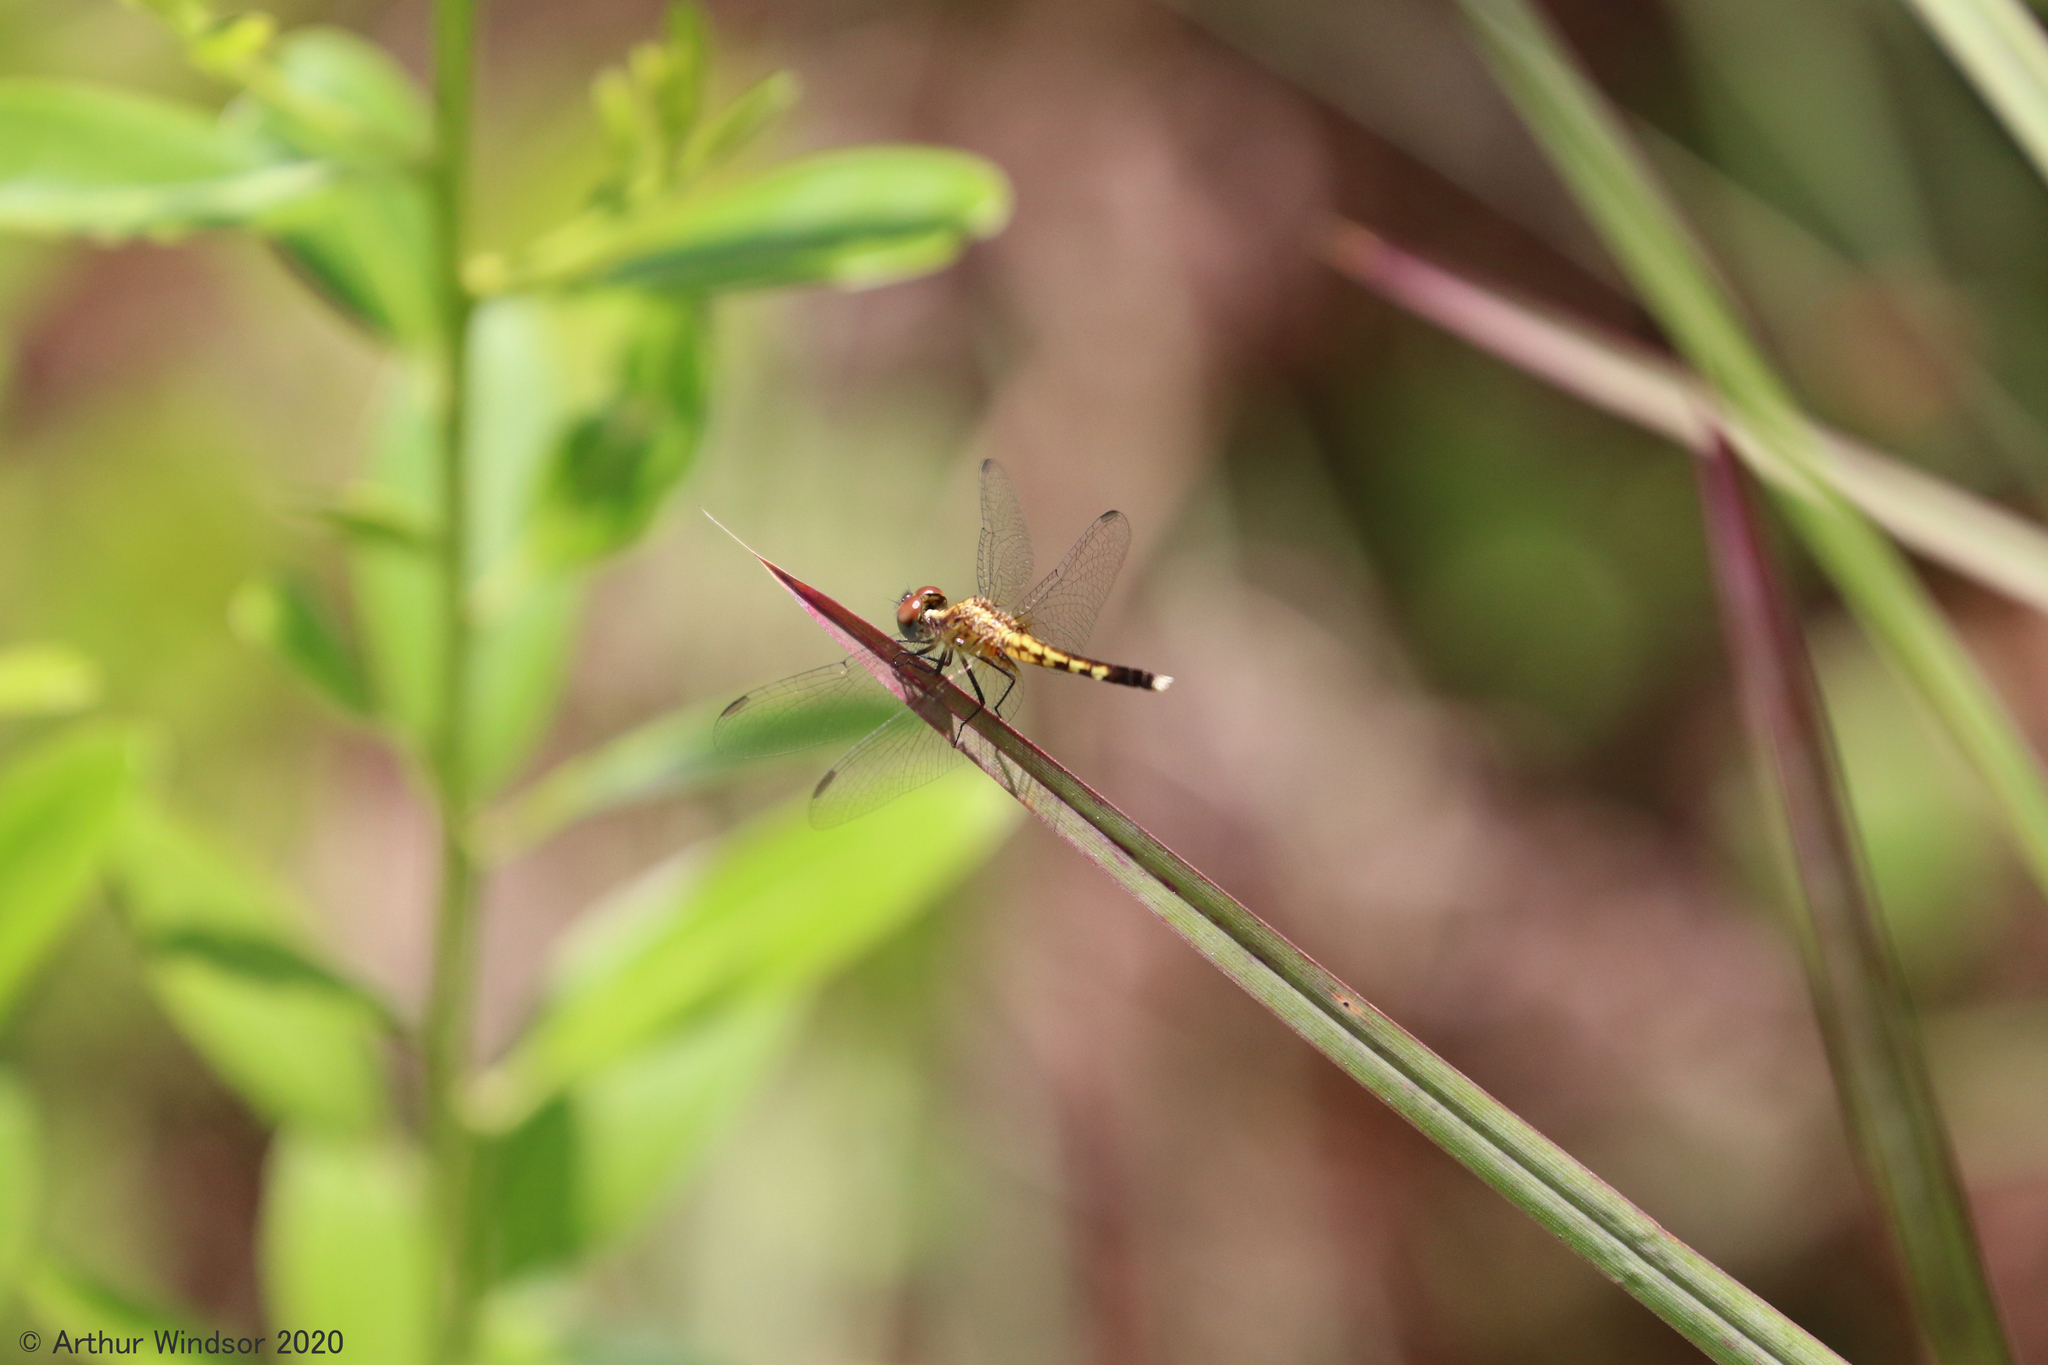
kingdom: Animalia
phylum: Arthropoda
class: Insecta
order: Odonata
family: Libellulidae
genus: Erythrodiplax
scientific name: Erythrodiplax minuscula
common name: Little blue dragonlet
